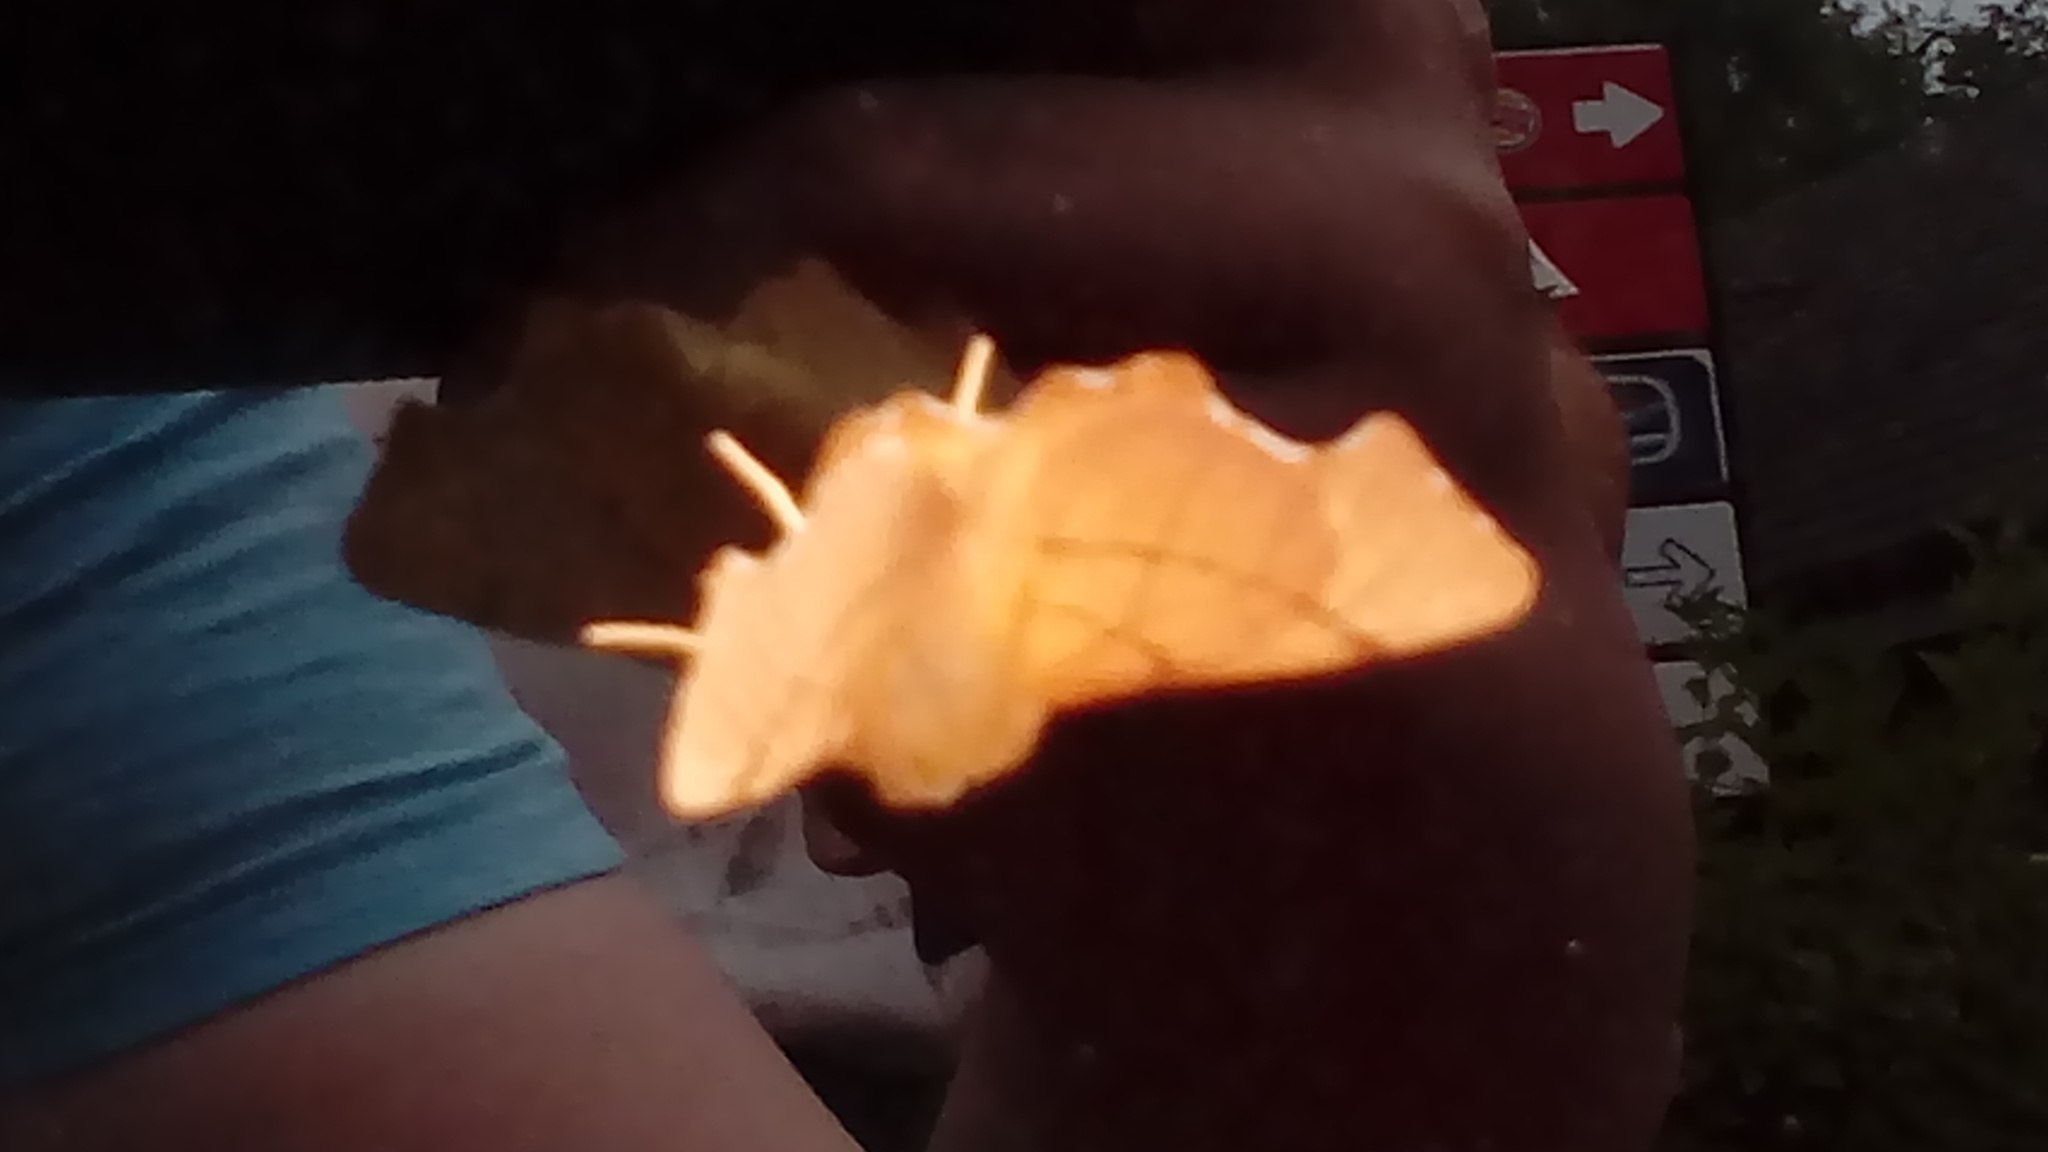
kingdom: Animalia
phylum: Arthropoda
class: Insecta
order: Lepidoptera
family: Geometridae
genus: Ennomos
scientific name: Ennomos erosaria
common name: September thorn
